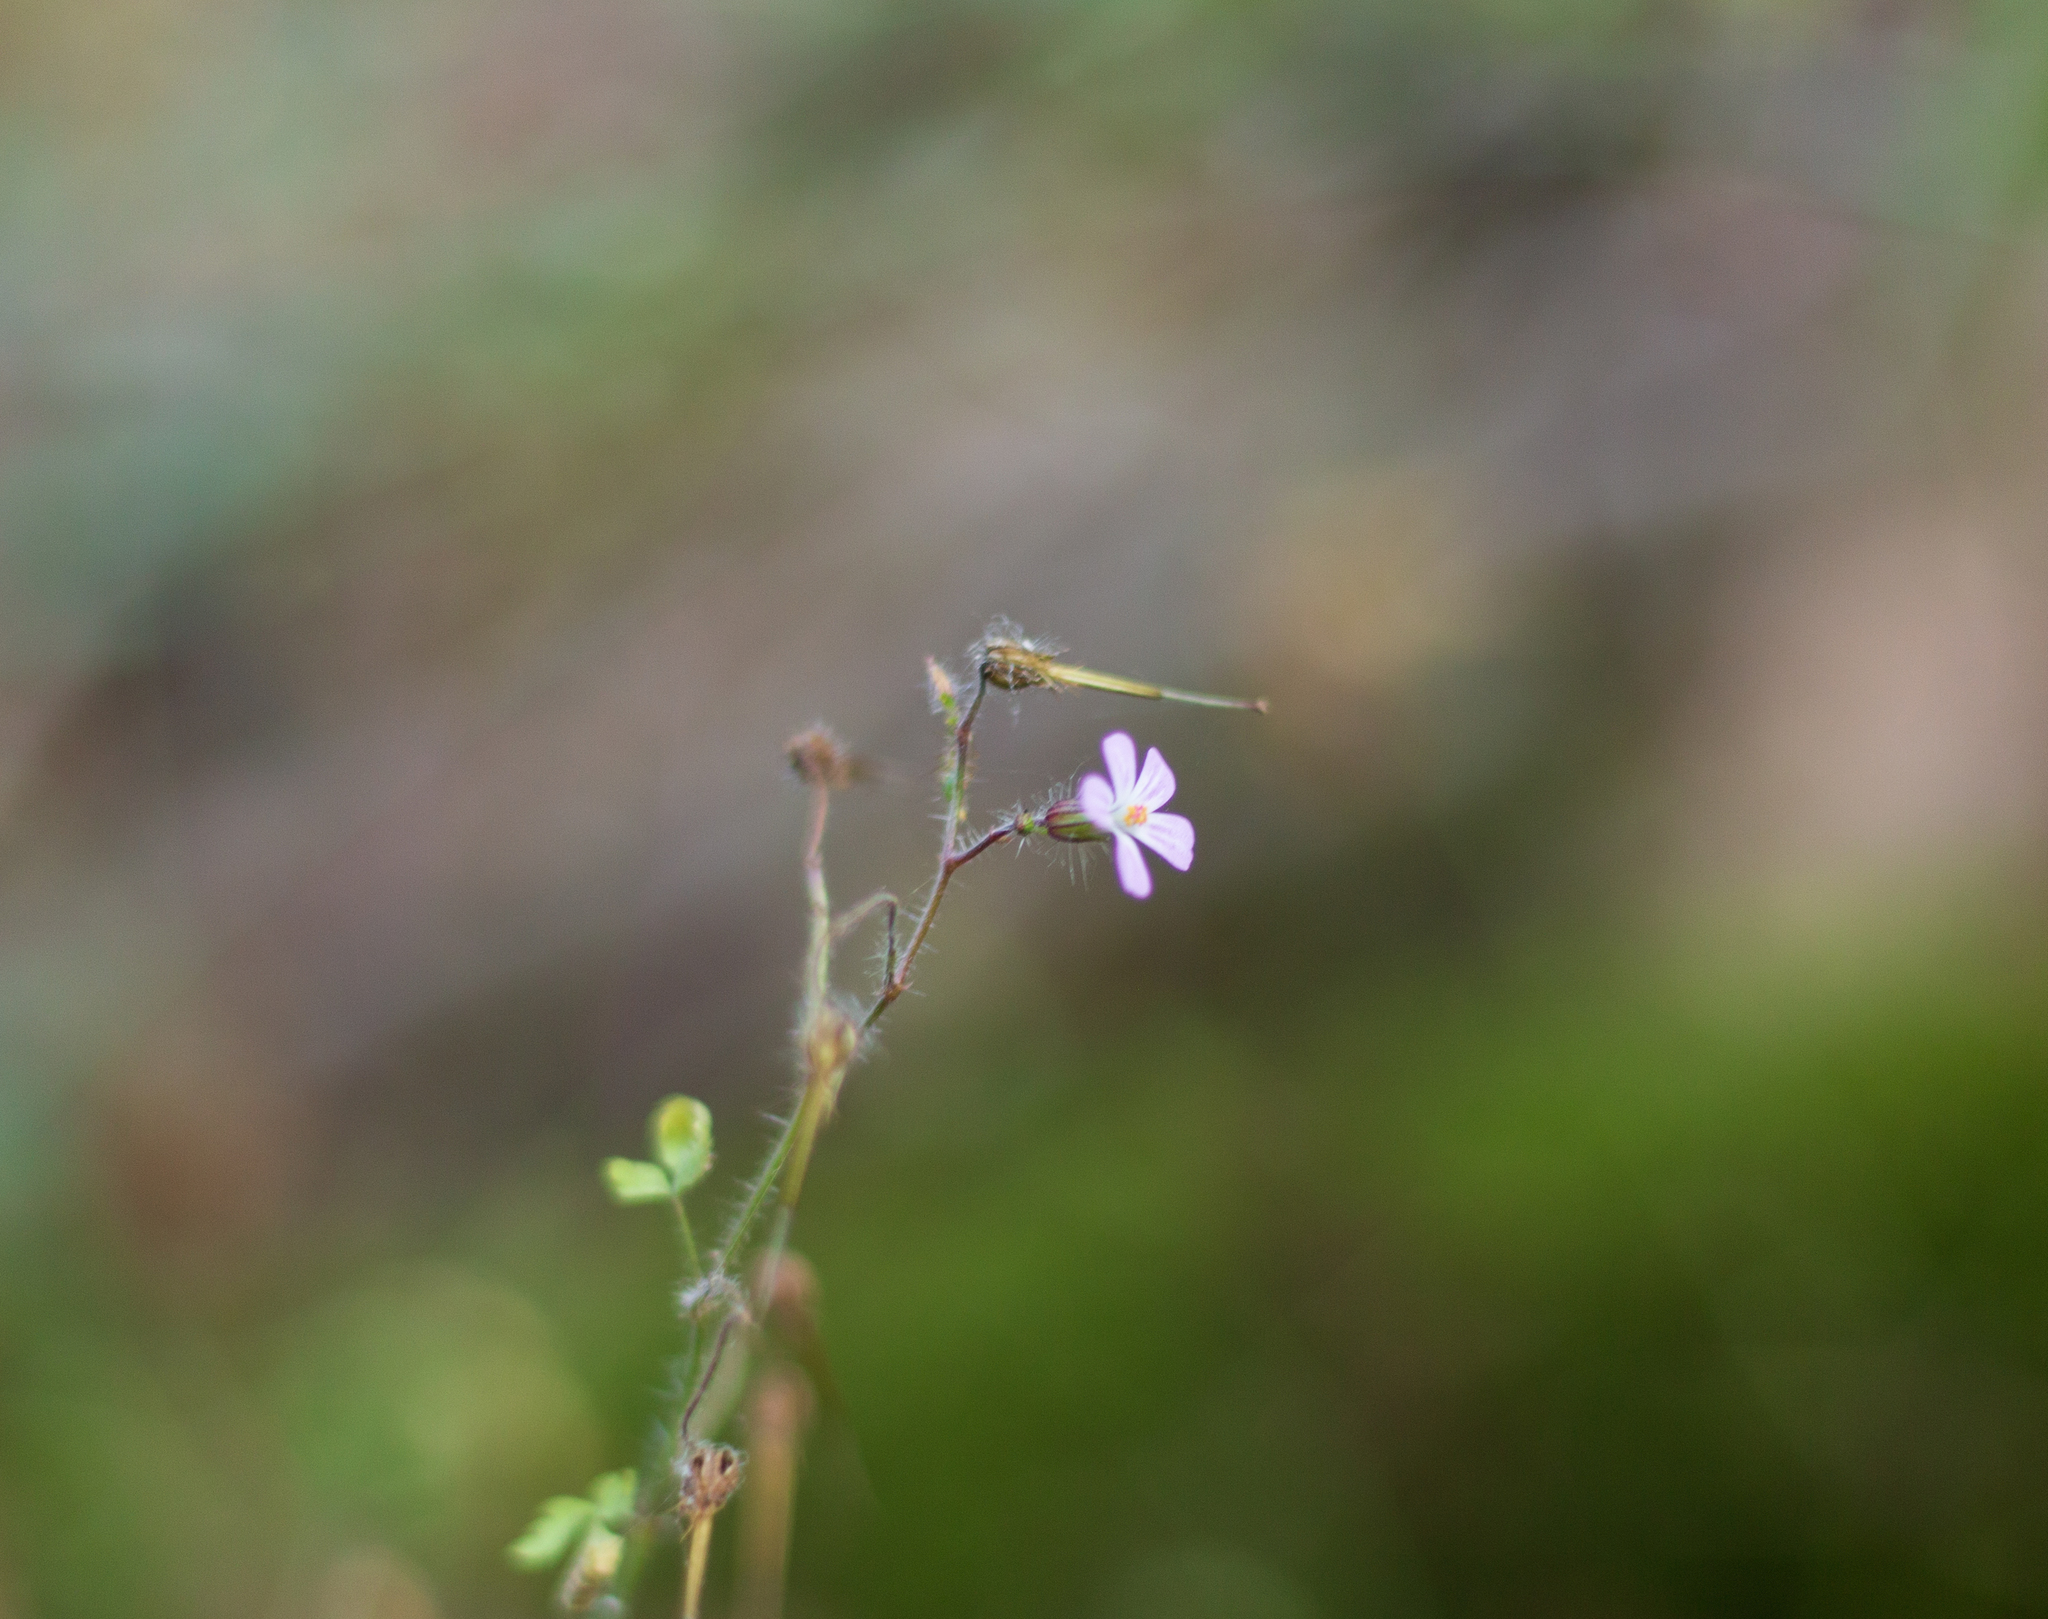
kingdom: Plantae
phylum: Tracheophyta
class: Magnoliopsida
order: Geraniales
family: Geraniaceae
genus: Geranium
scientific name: Geranium robertianum
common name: Herb-robert
